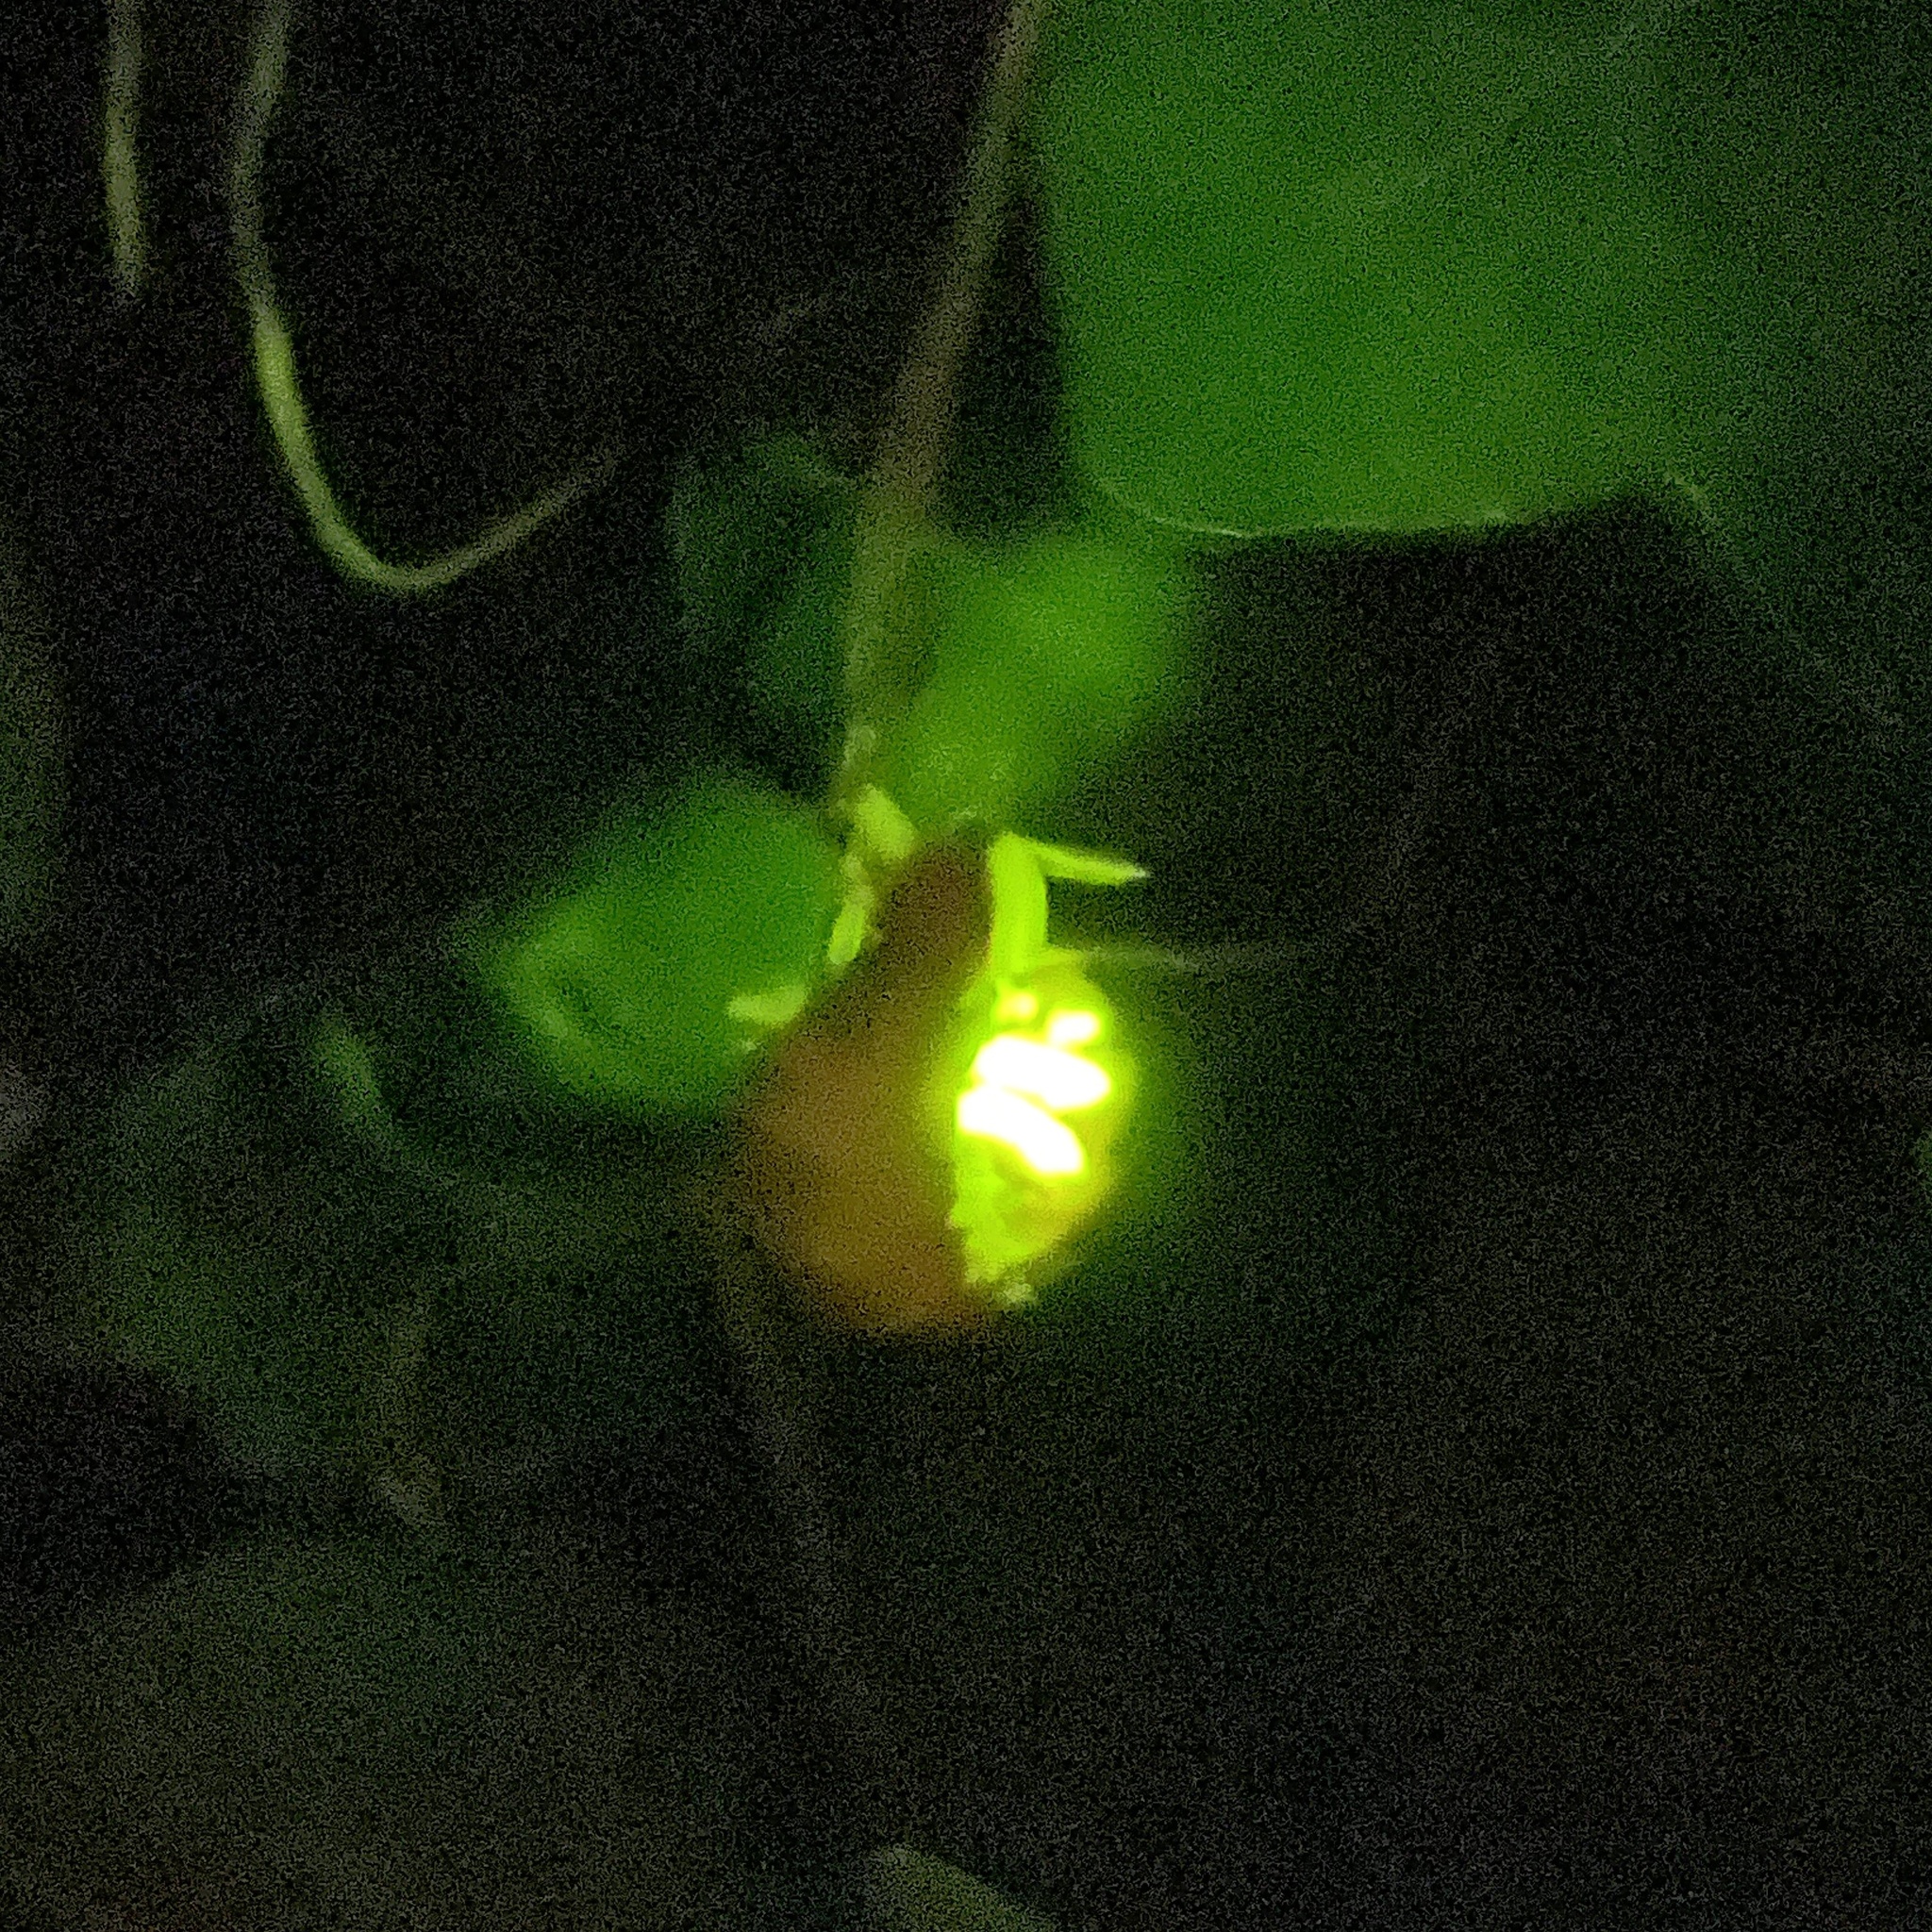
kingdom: Animalia
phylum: Arthropoda
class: Insecta
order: Coleoptera
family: Lampyridae
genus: Nyctophila
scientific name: Nyctophila reichii
